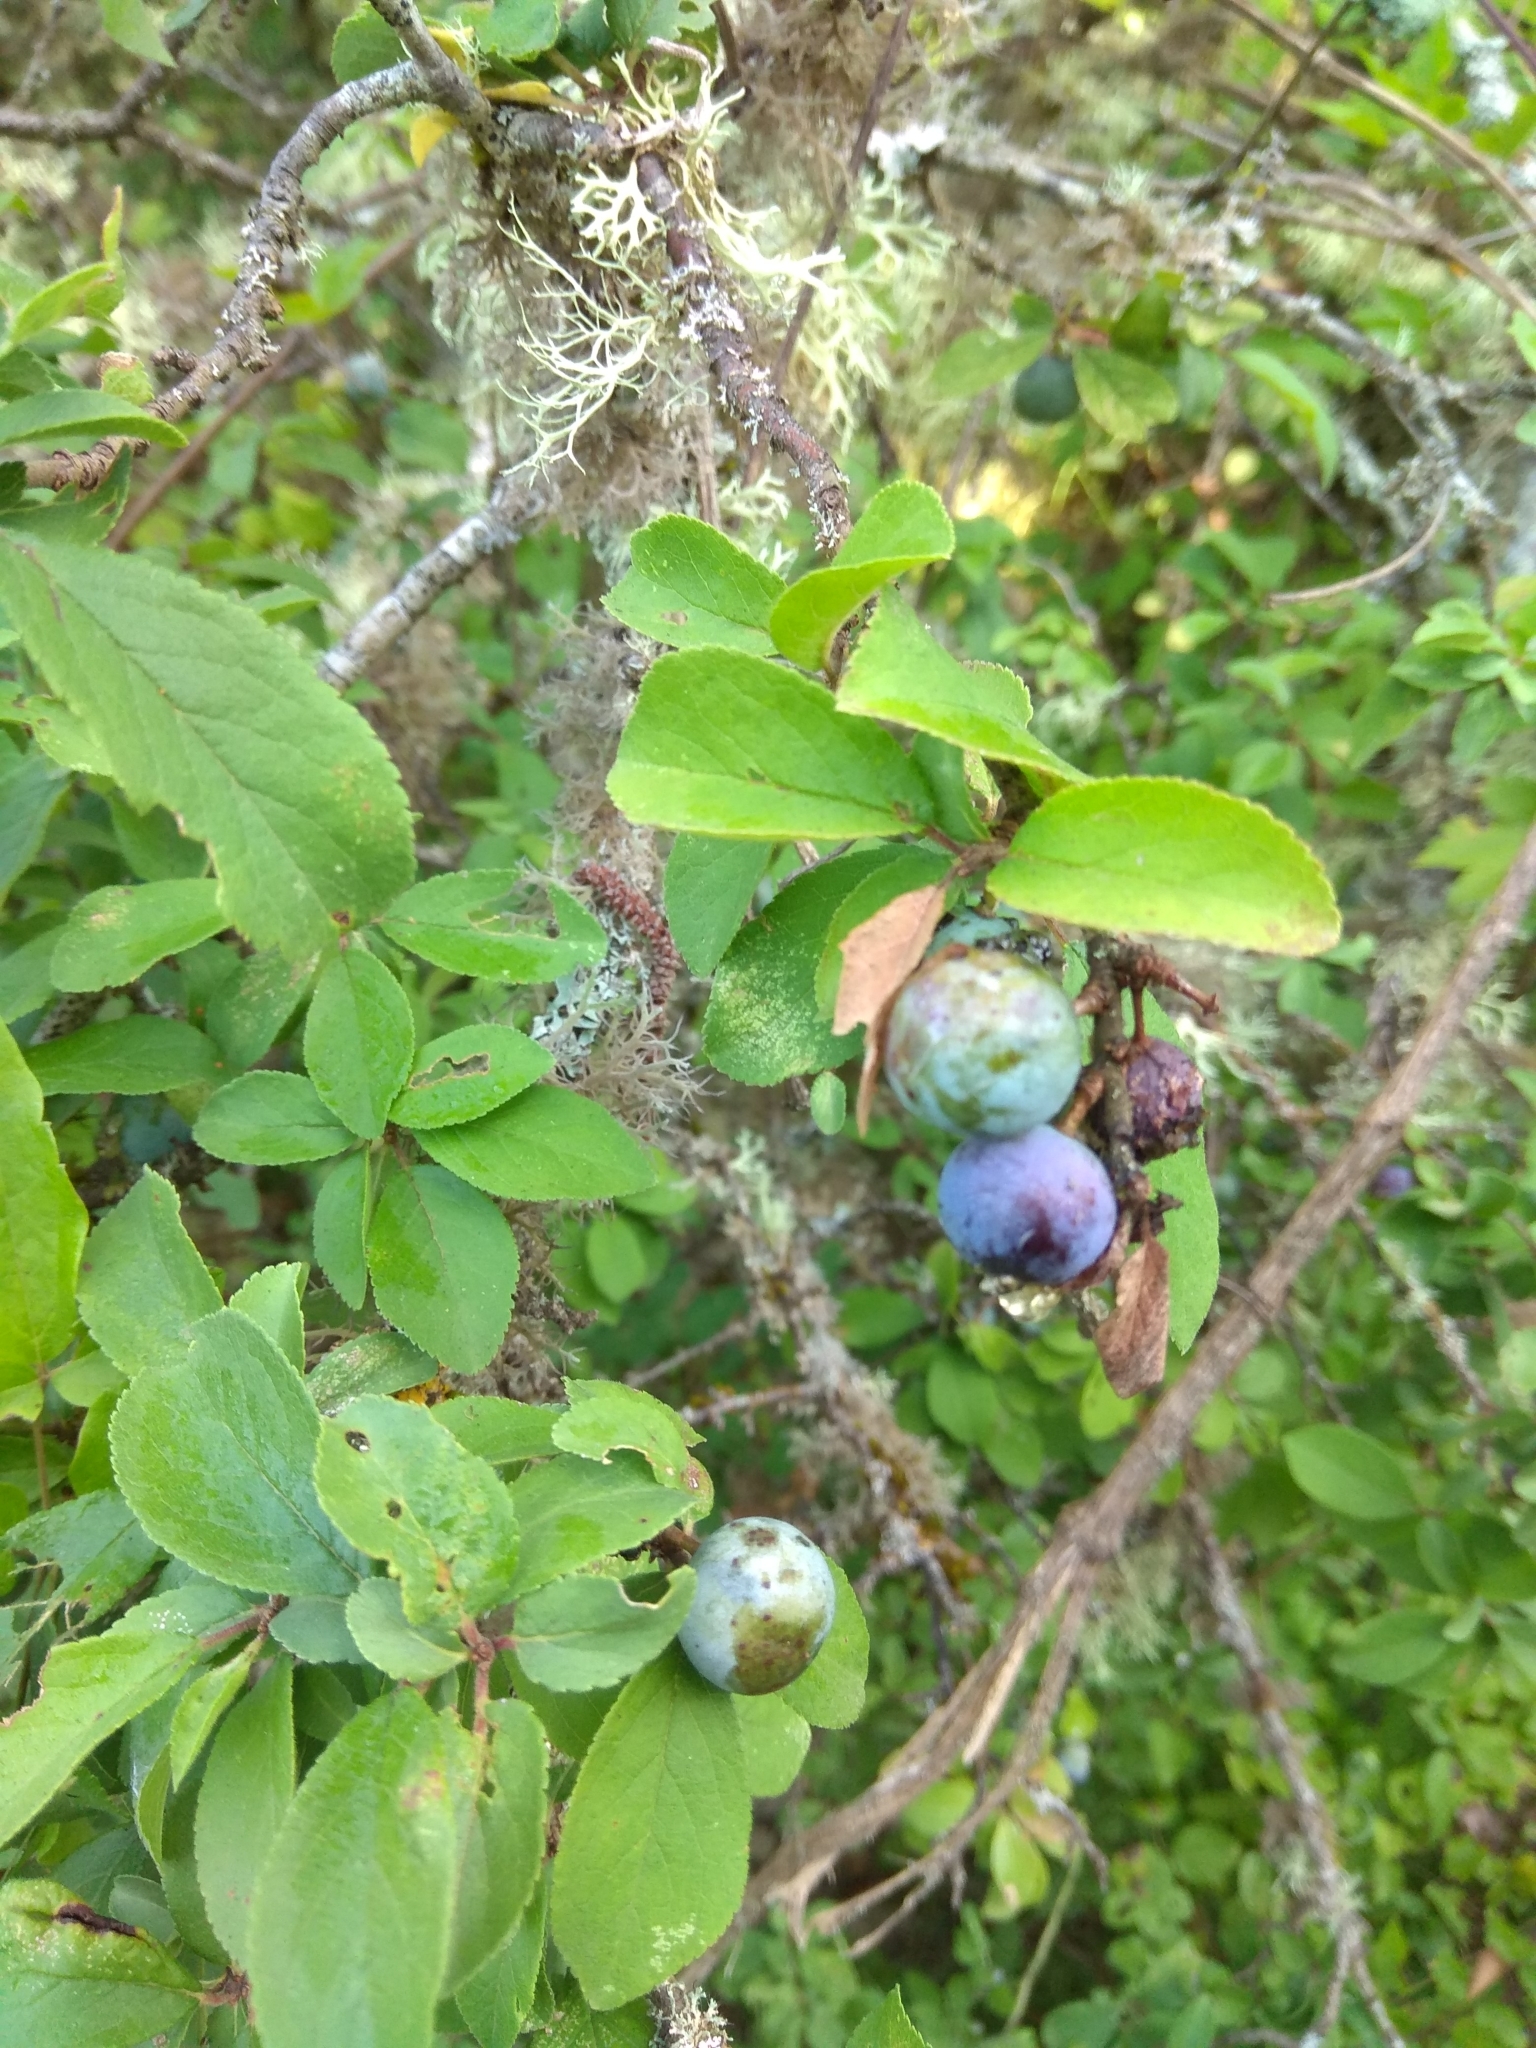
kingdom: Plantae
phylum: Tracheophyta
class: Magnoliopsida
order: Rosales
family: Rosaceae
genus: Prunus
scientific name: Prunus spinosa
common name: Blackthorn
